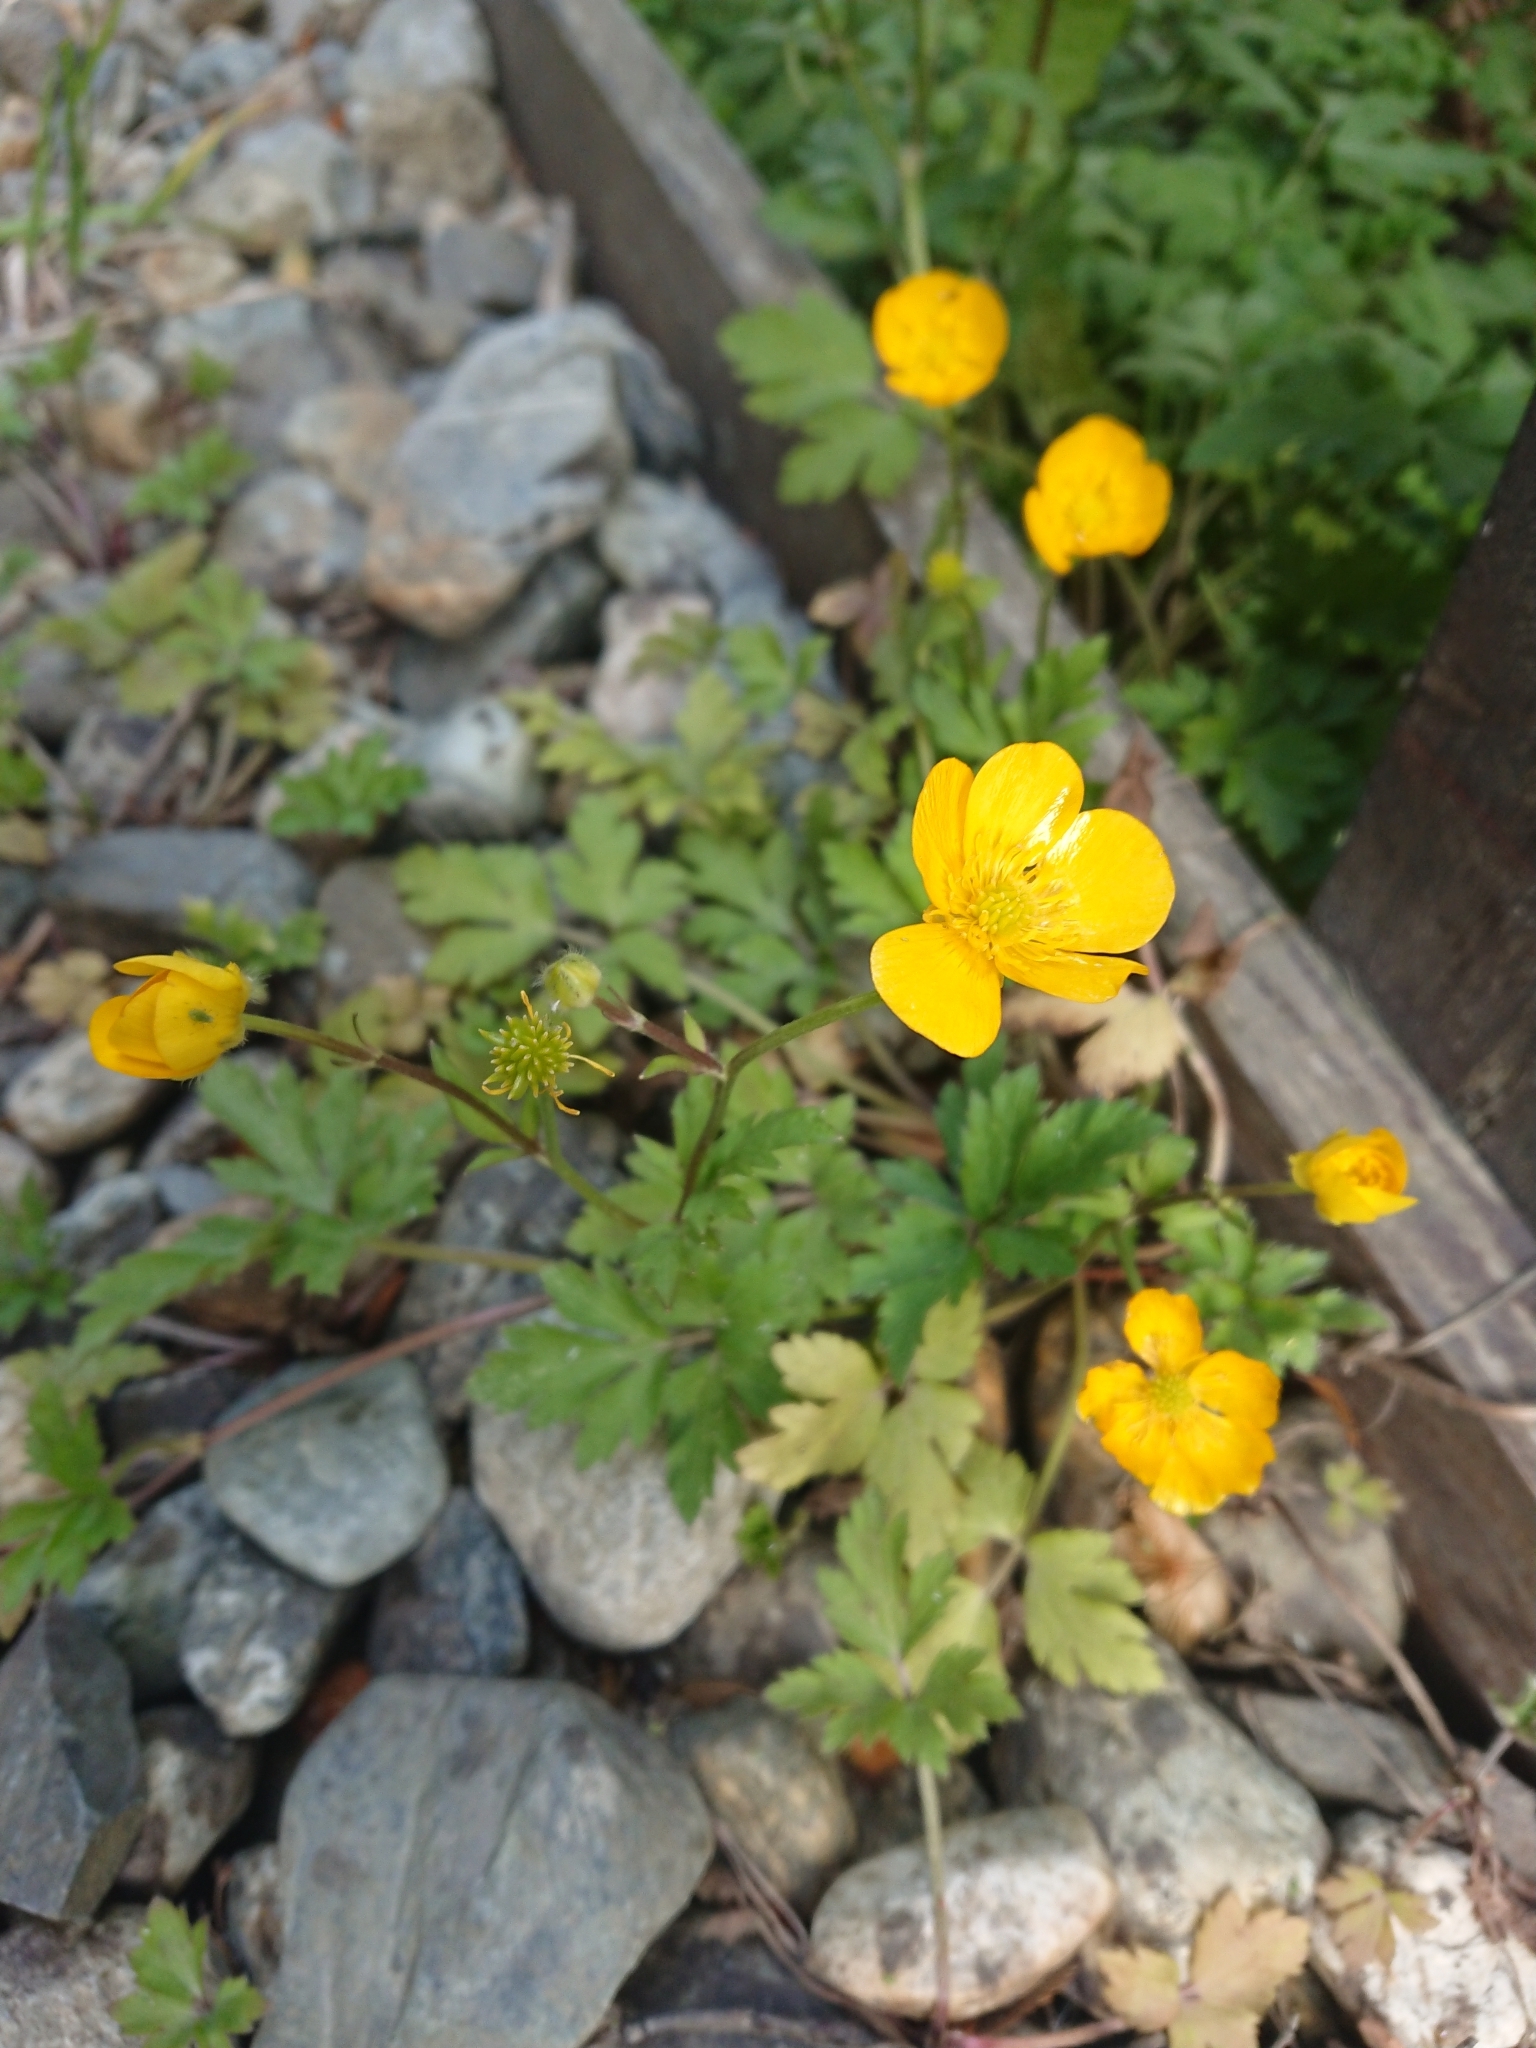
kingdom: Plantae
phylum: Tracheophyta
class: Magnoliopsida
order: Ranunculales
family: Ranunculaceae
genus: Ranunculus
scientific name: Ranunculus repens
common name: Creeping buttercup
